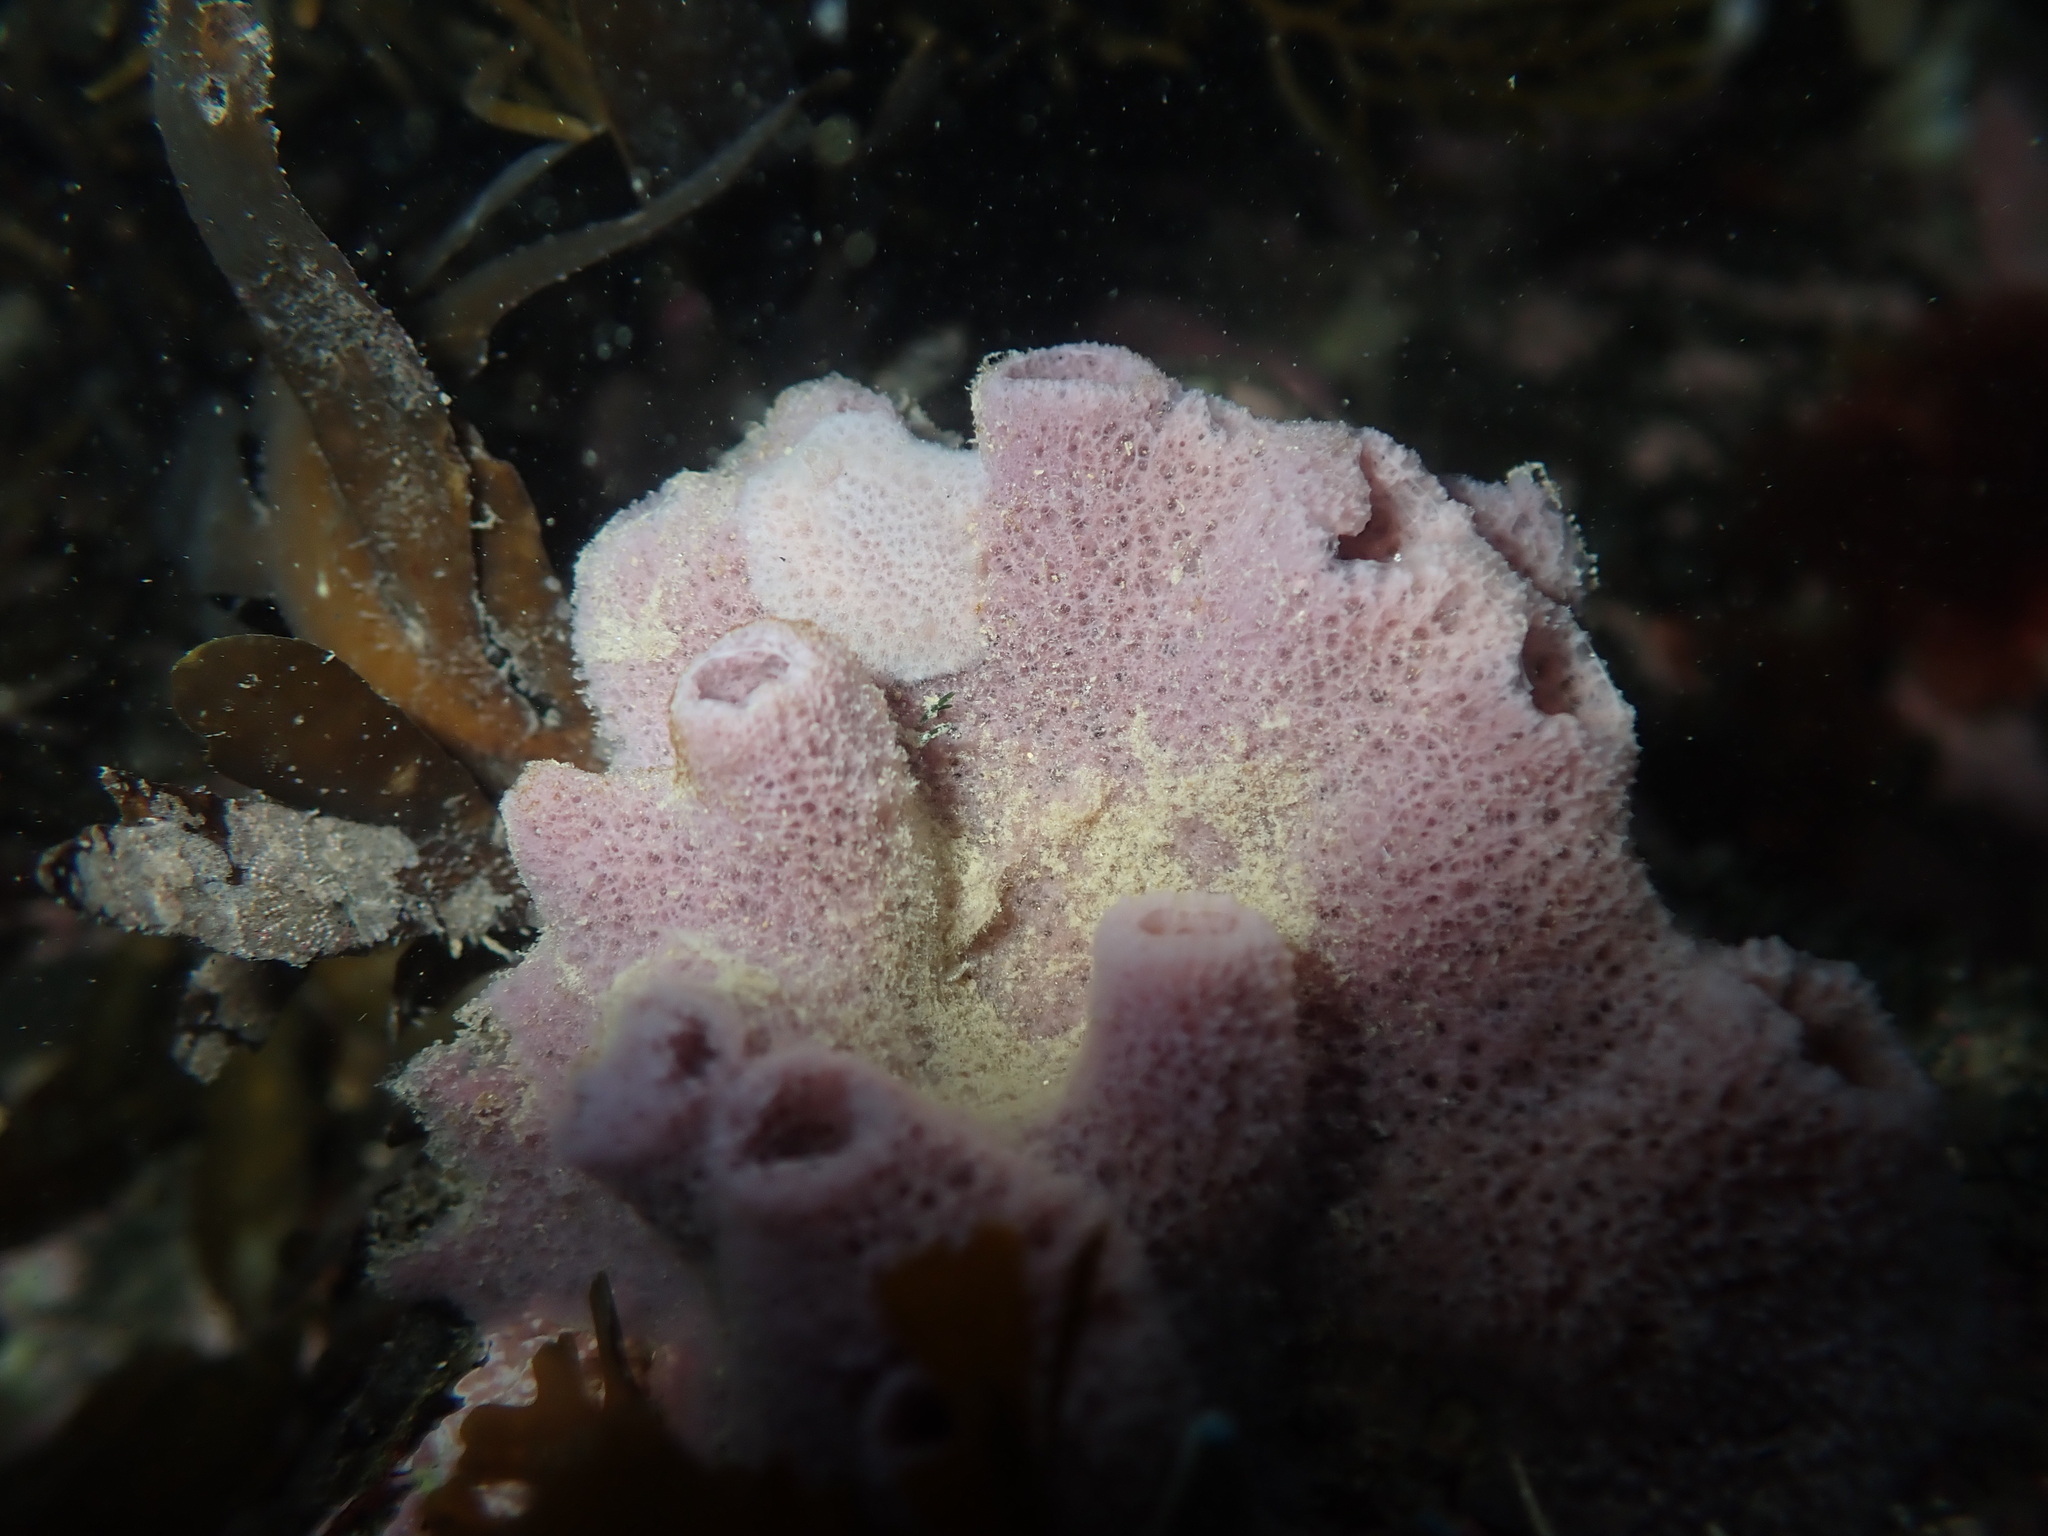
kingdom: Animalia
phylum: Mollusca
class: Gastropoda
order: Nudibranchia
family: Discodorididae
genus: Jorunna
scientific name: Jorunna ramicola
